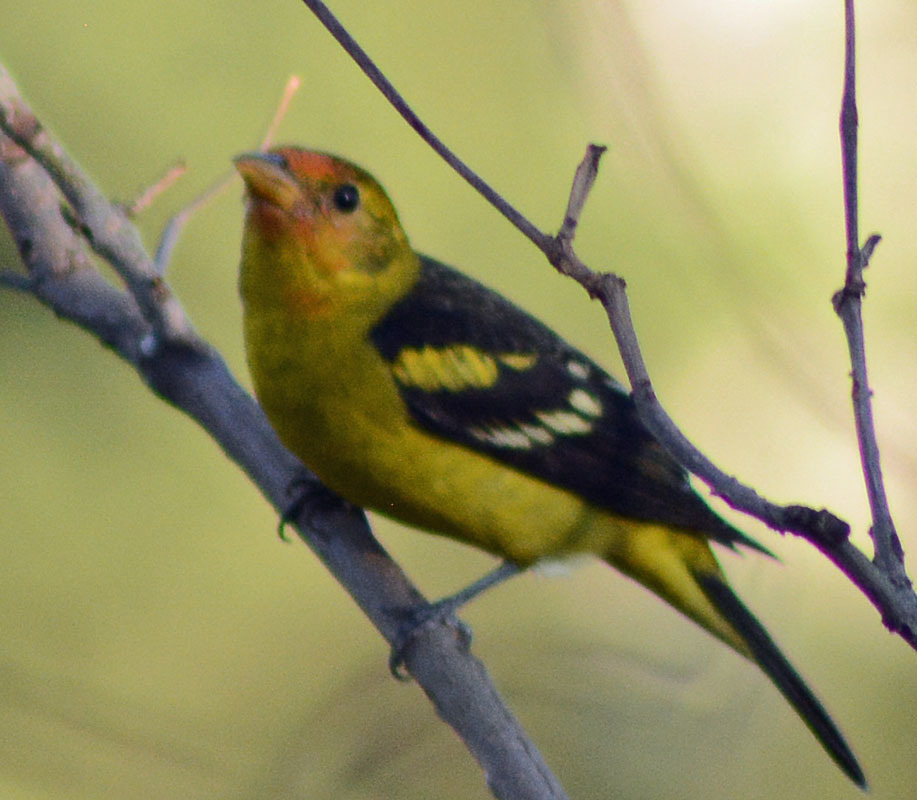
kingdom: Animalia
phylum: Chordata
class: Aves
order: Passeriformes
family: Cardinalidae
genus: Piranga
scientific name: Piranga ludoviciana
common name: Western tanager
